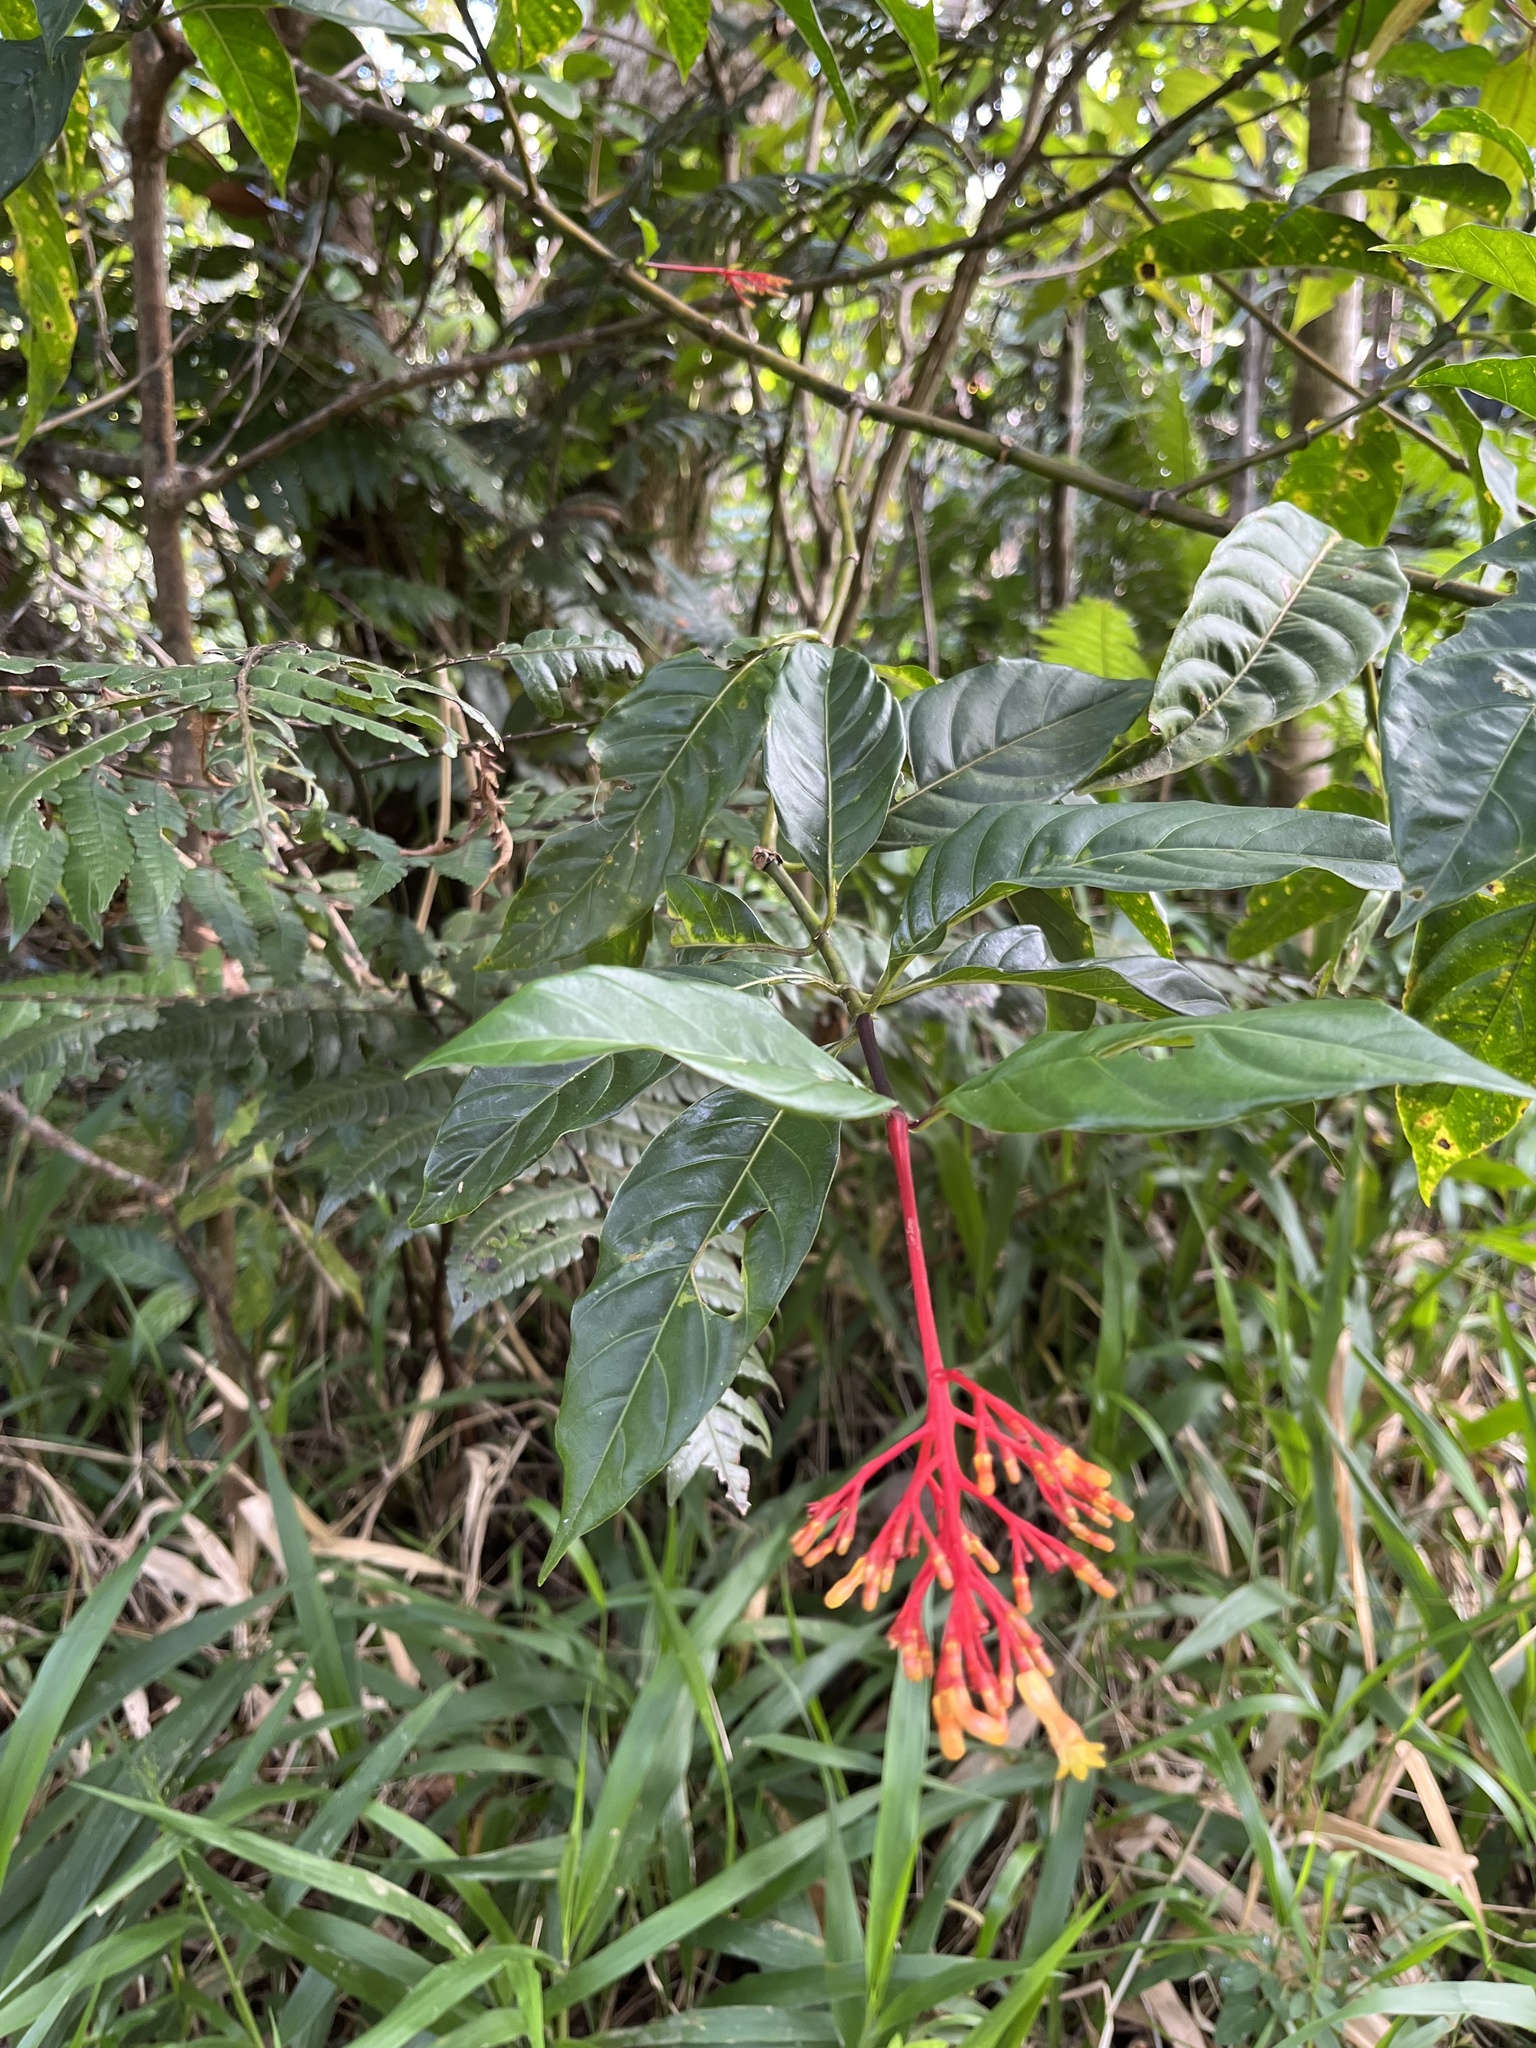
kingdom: Plantae
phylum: Tracheophyta
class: Magnoliopsida
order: Gentianales
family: Rubiaceae
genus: Palicourea
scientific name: Palicourea croceoides
